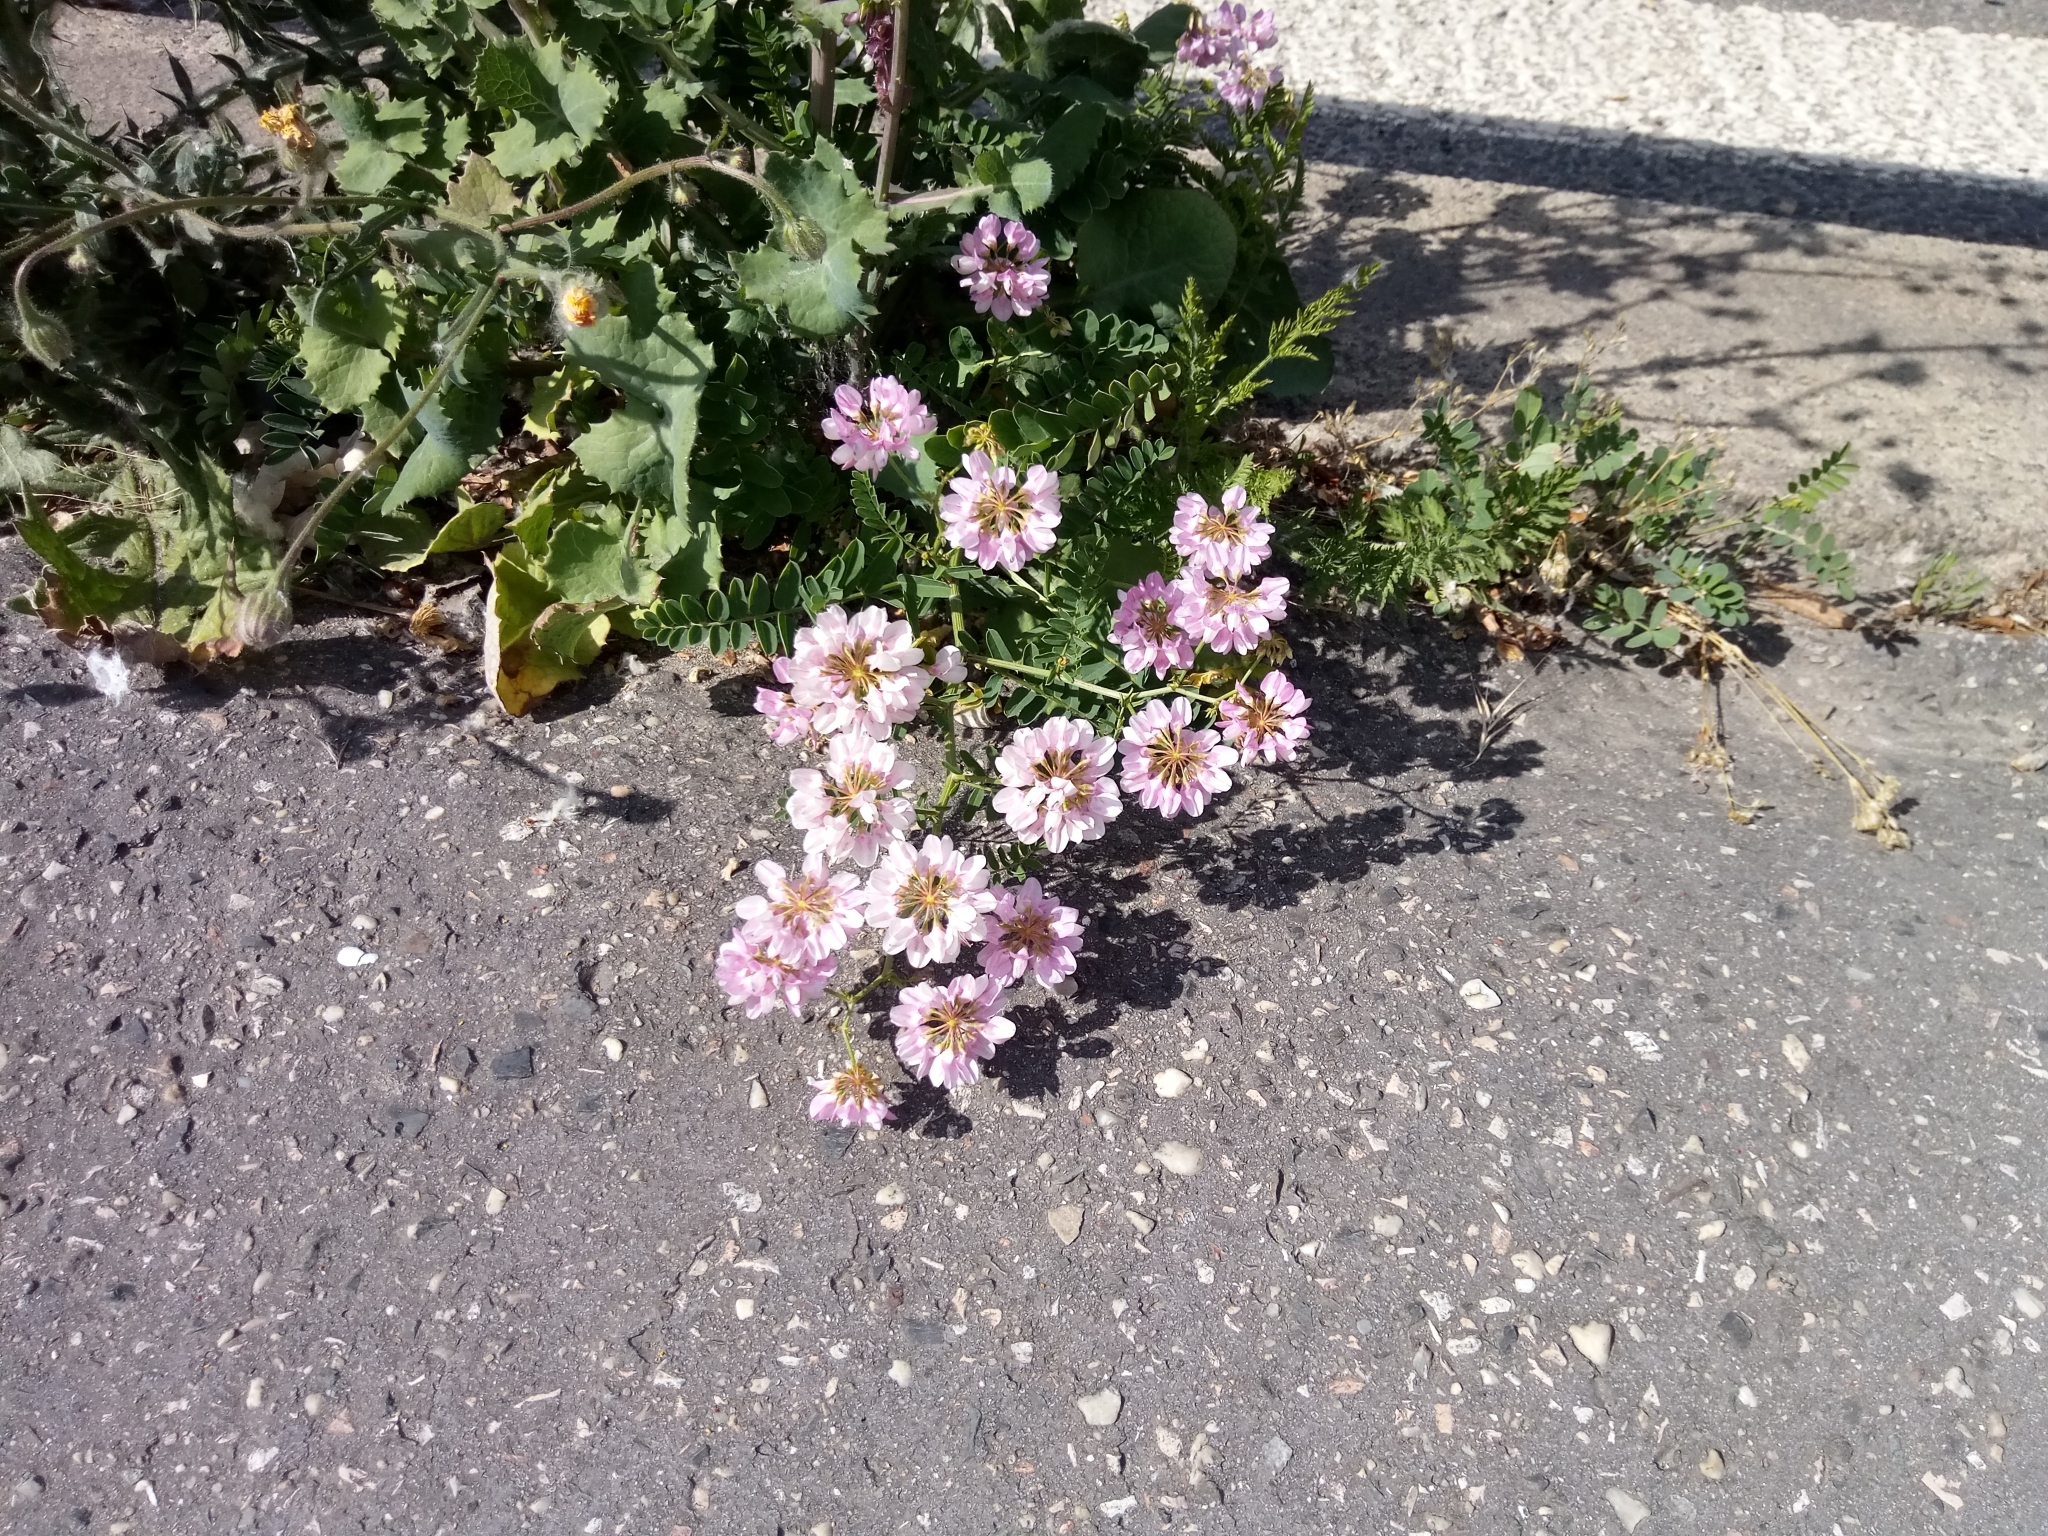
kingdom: Plantae
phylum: Tracheophyta
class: Magnoliopsida
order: Fabales
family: Fabaceae
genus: Coronilla
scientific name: Coronilla varia
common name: Crownvetch
